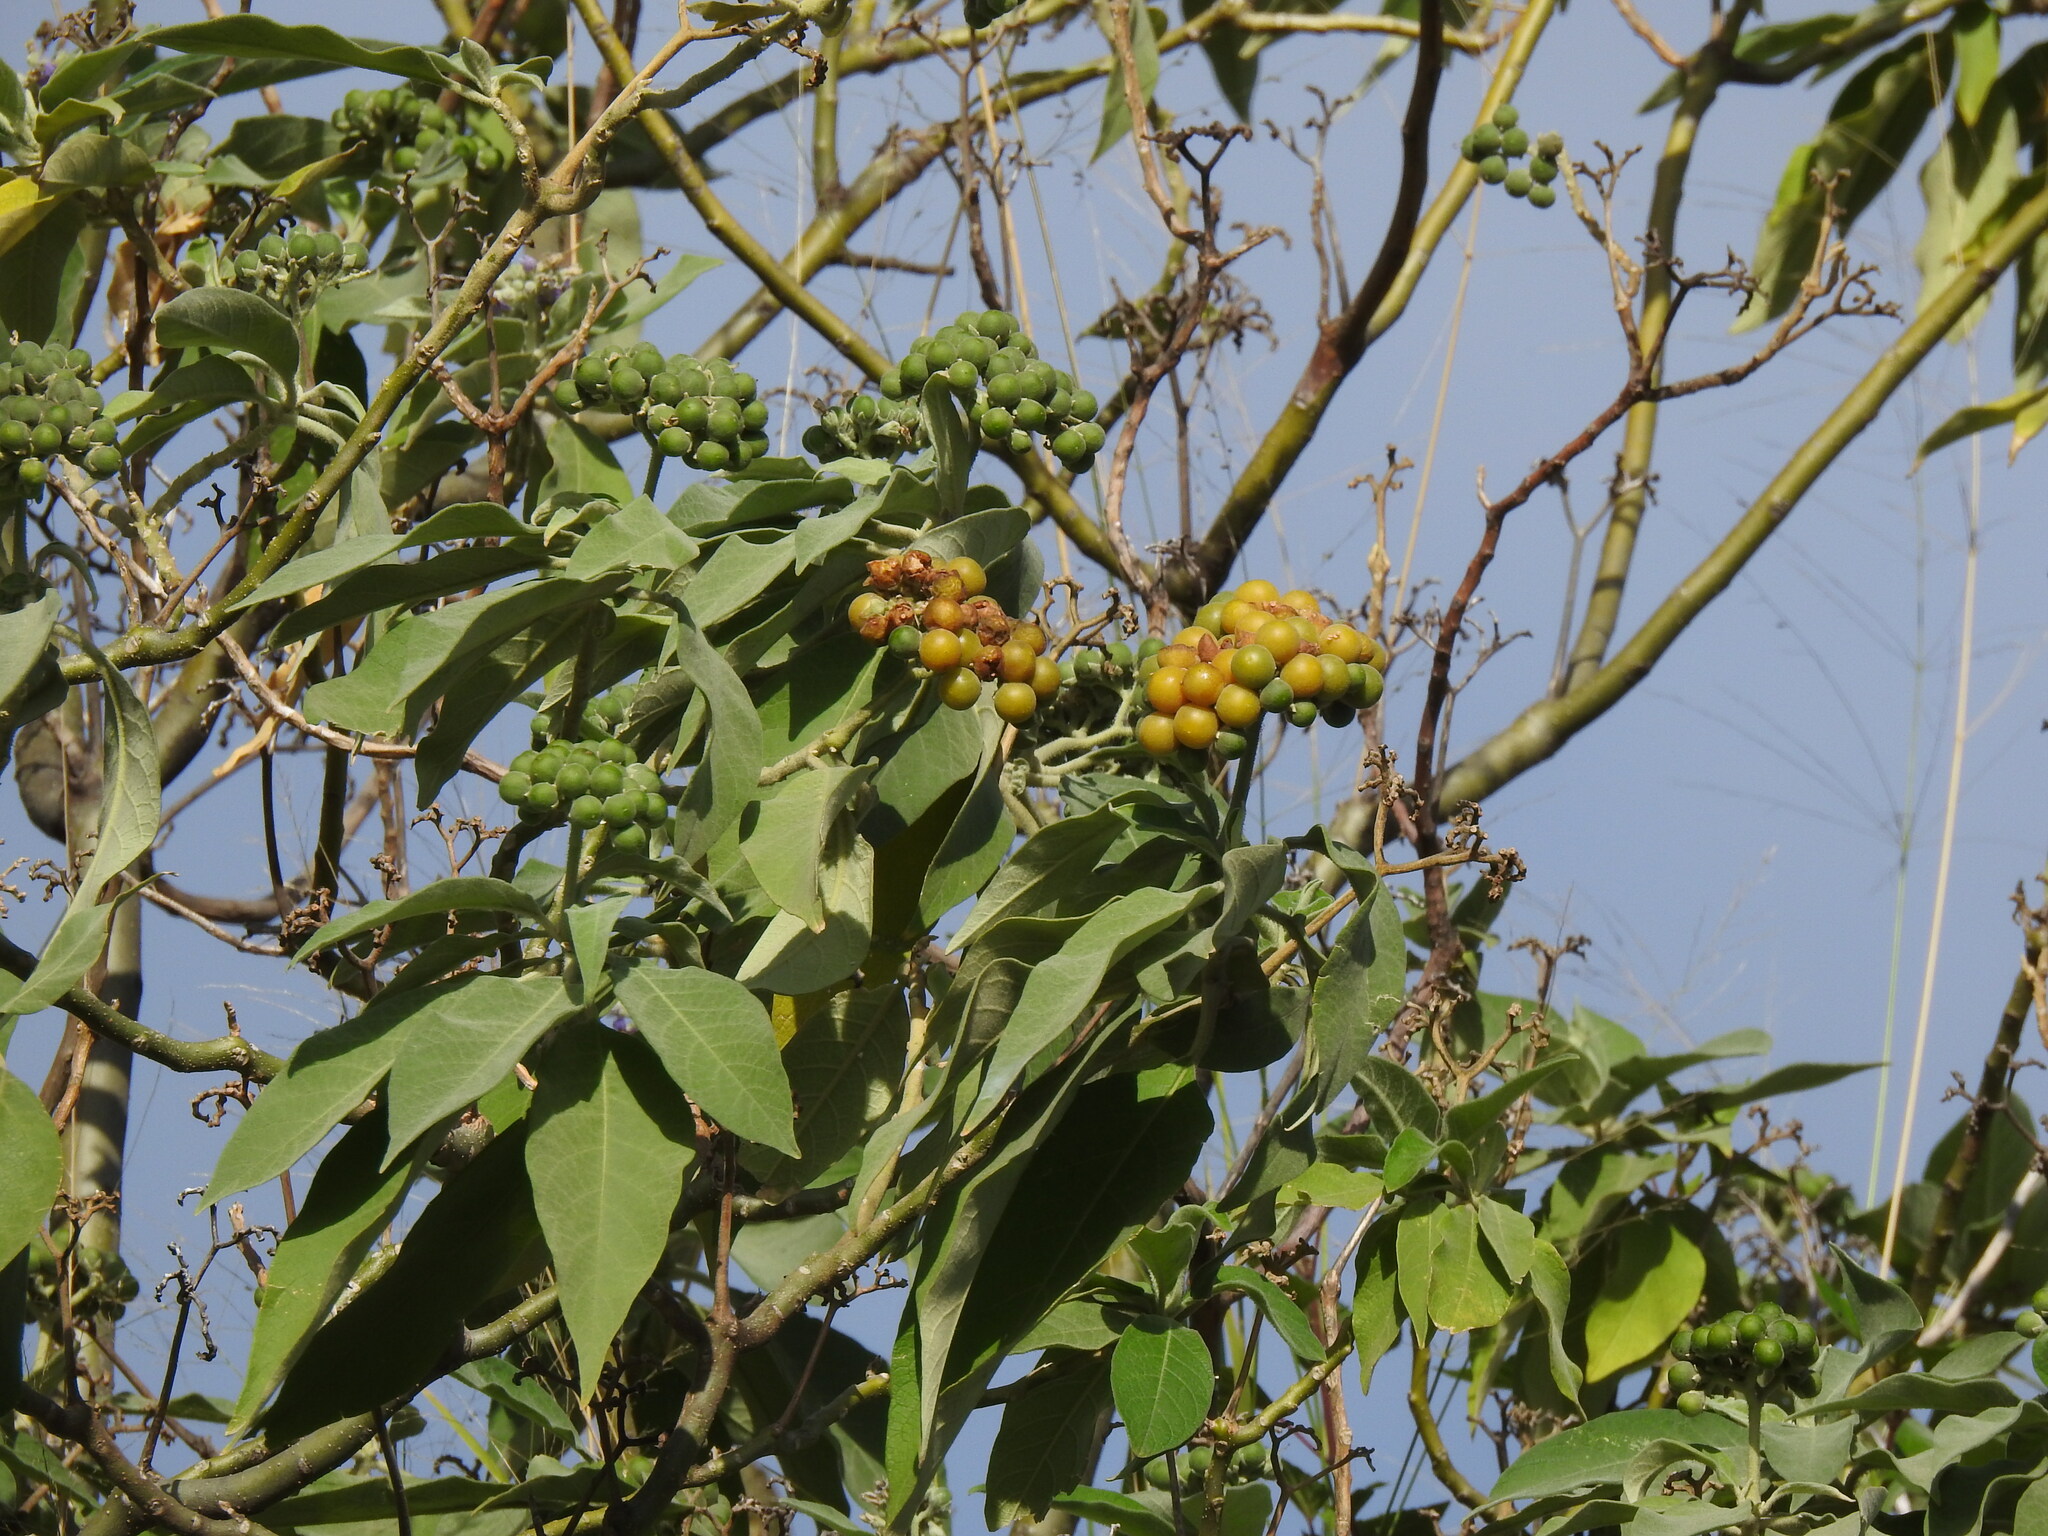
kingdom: Plantae
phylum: Tracheophyta
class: Magnoliopsida
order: Solanales
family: Solanaceae
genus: Solanum
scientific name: Solanum mauritianum
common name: Earleaf nightshade
